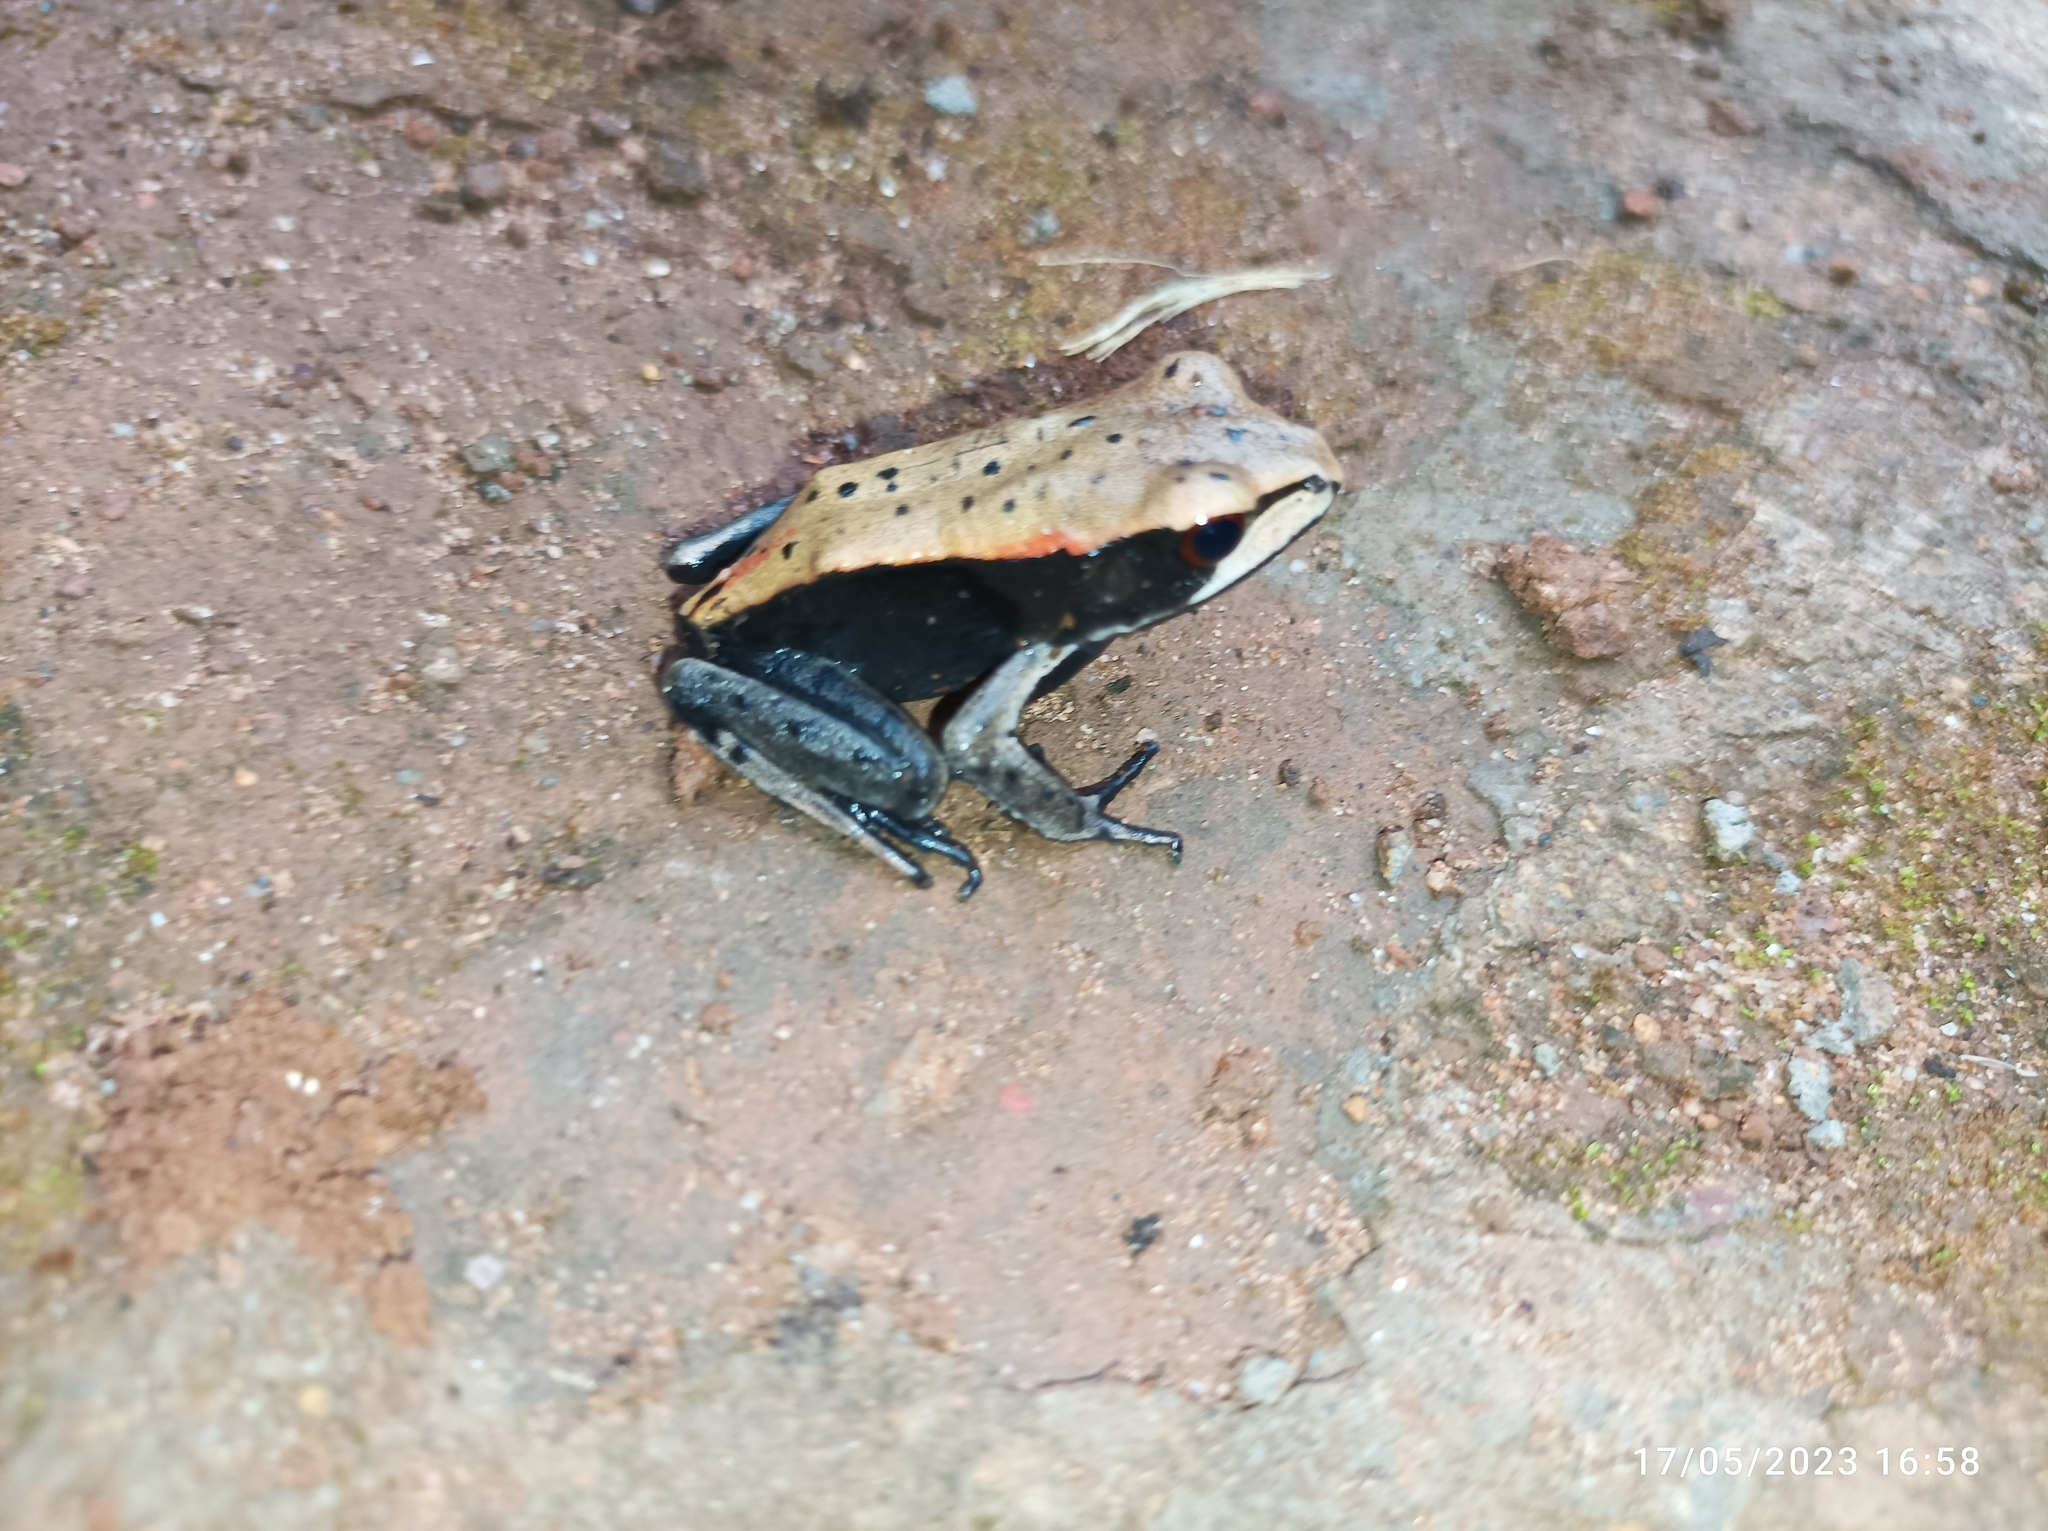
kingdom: Animalia
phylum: Chordata
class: Amphibia
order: Anura
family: Ranidae
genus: Clinotarsus
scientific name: Clinotarsus curtipes
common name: Bicoloured frog
